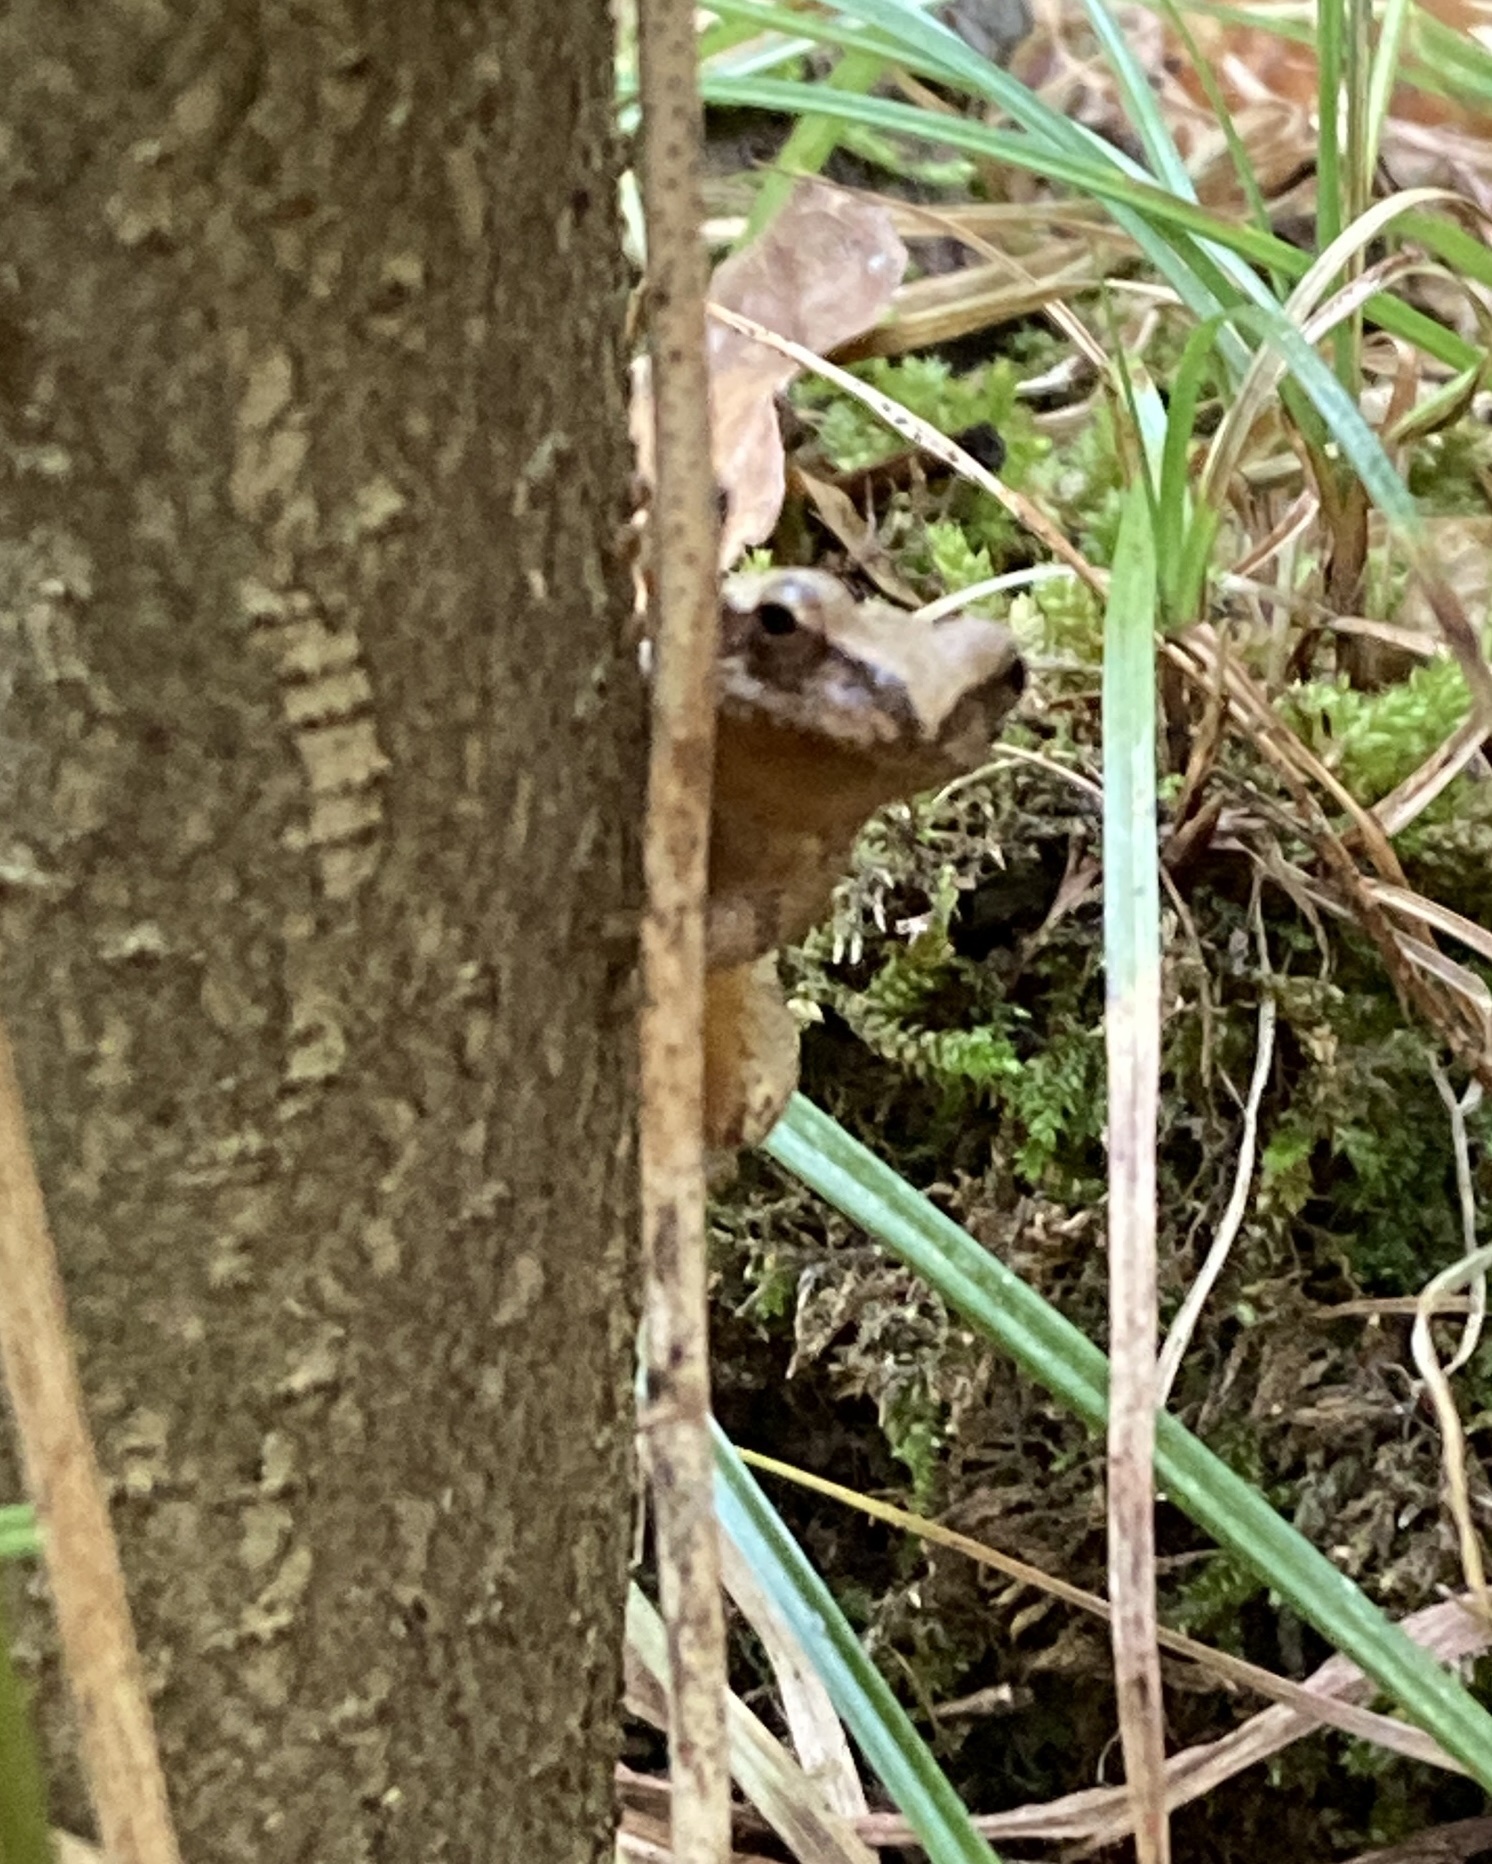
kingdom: Animalia
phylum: Chordata
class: Amphibia
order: Anura
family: Hylidae
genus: Pseudacris
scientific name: Pseudacris crucifer
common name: Spring peeper
